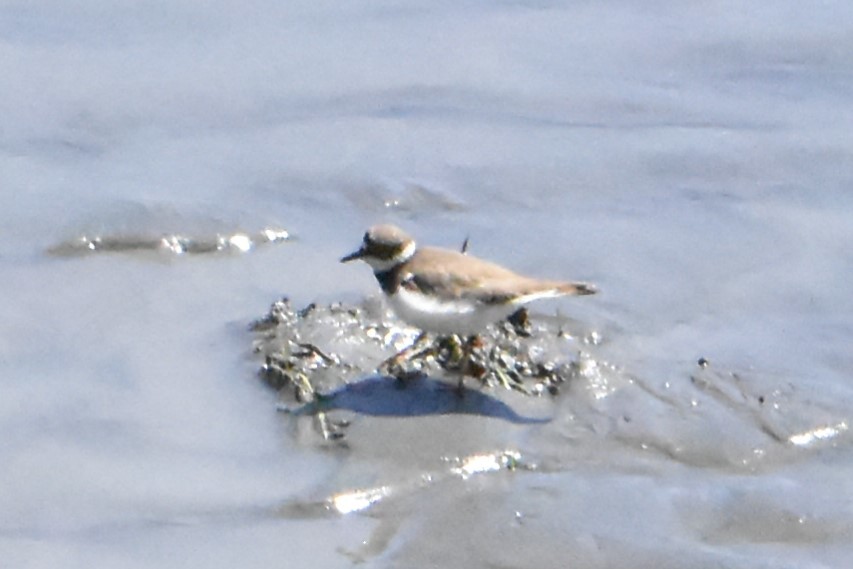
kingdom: Animalia
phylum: Chordata
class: Aves
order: Charadriiformes
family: Charadriidae
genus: Charadrius
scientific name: Charadrius dubius
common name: Little ringed plover
